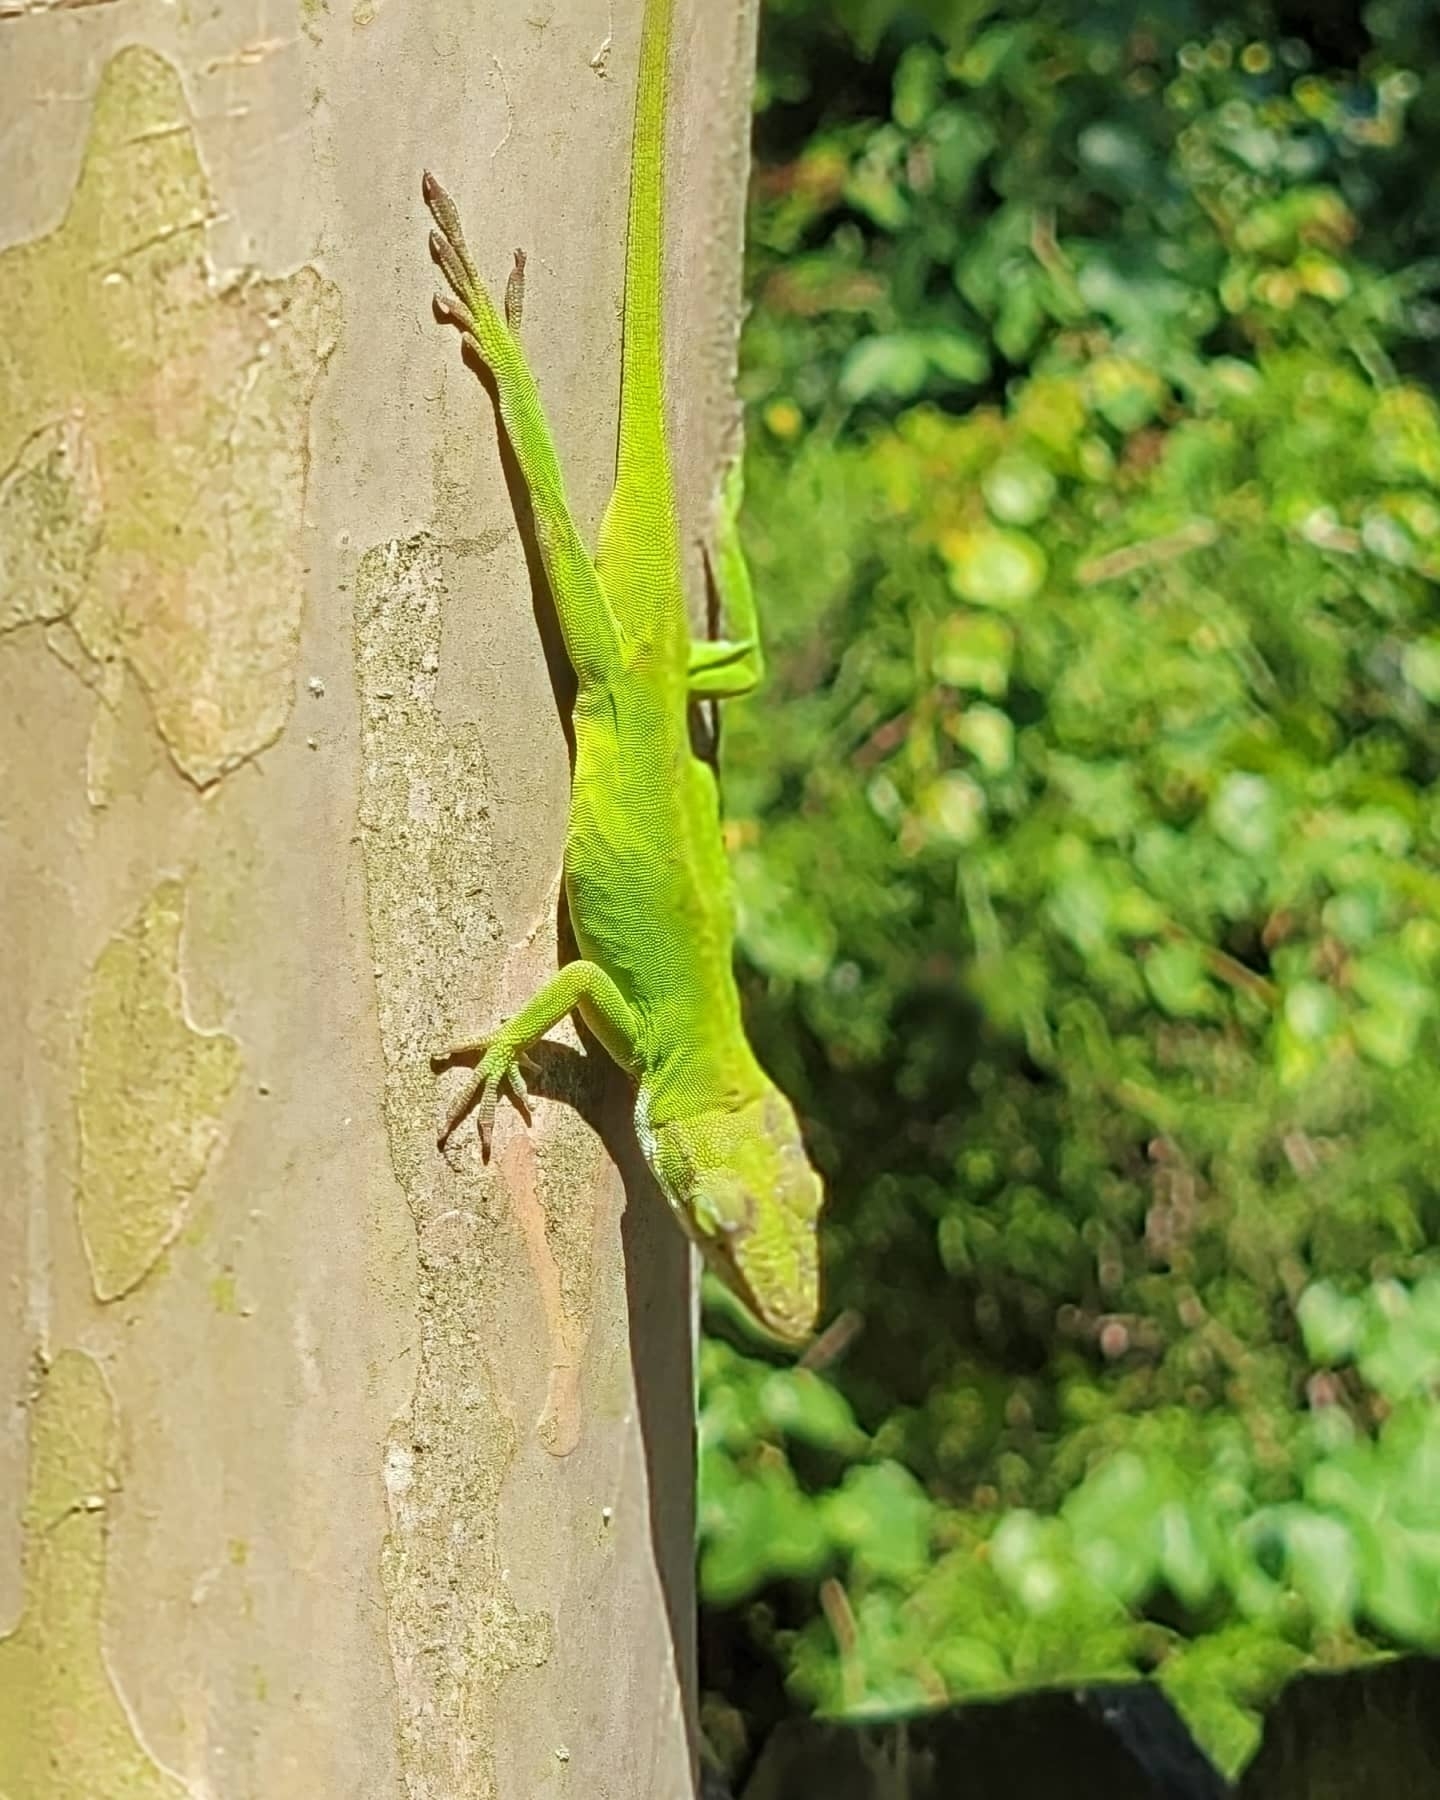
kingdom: Animalia
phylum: Chordata
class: Squamata
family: Dactyloidae
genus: Anolis
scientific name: Anolis carolinensis
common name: Green anole
